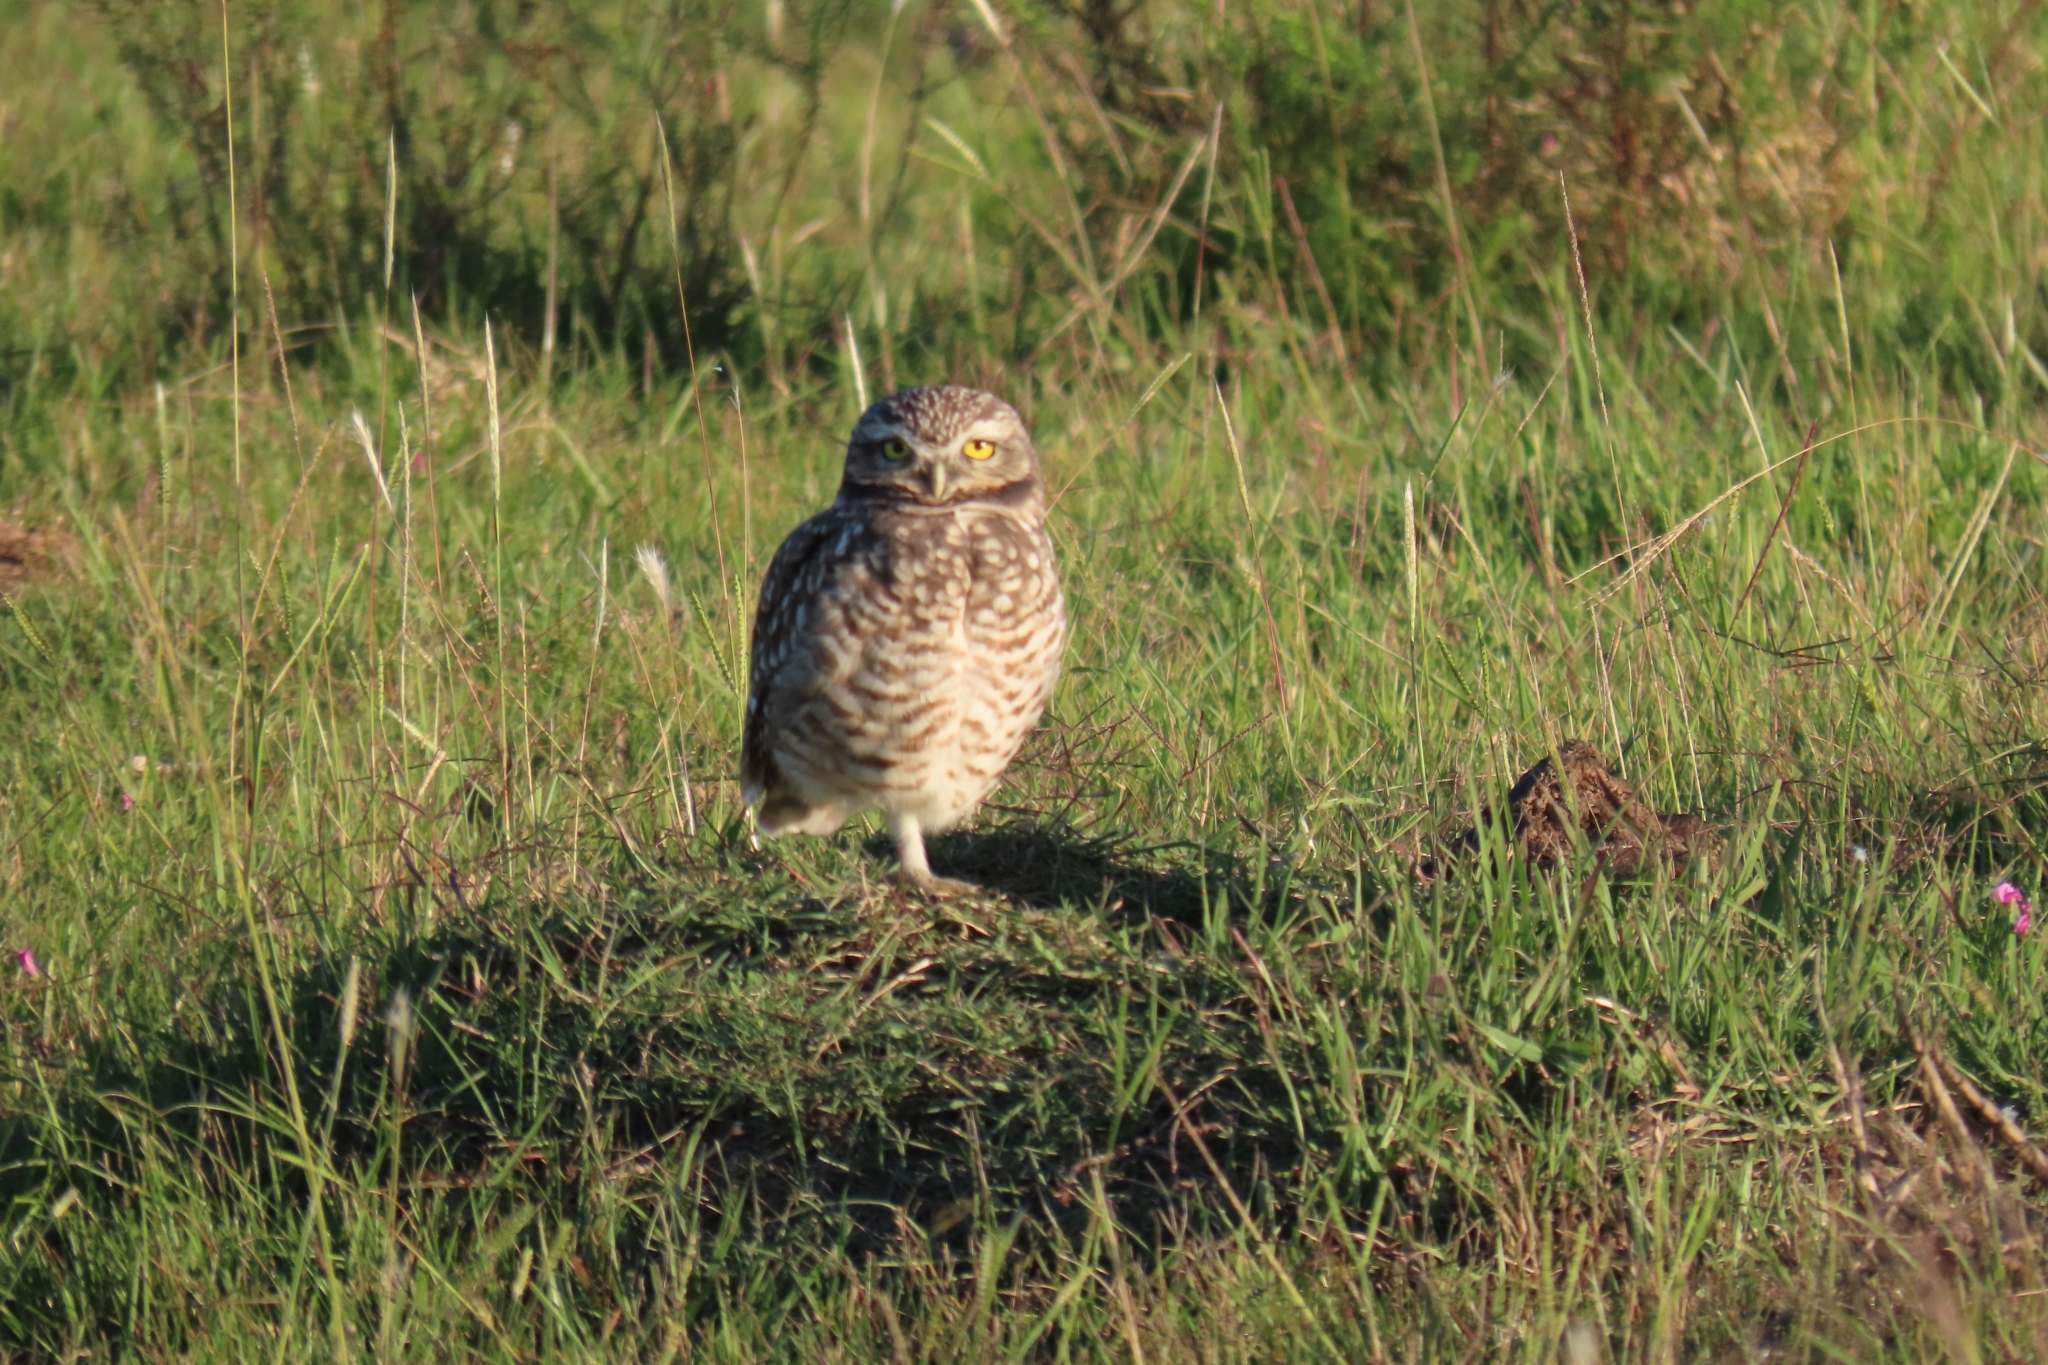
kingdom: Animalia
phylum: Chordata
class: Aves
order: Strigiformes
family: Strigidae
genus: Athene
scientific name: Athene cunicularia
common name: Burrowing owl
